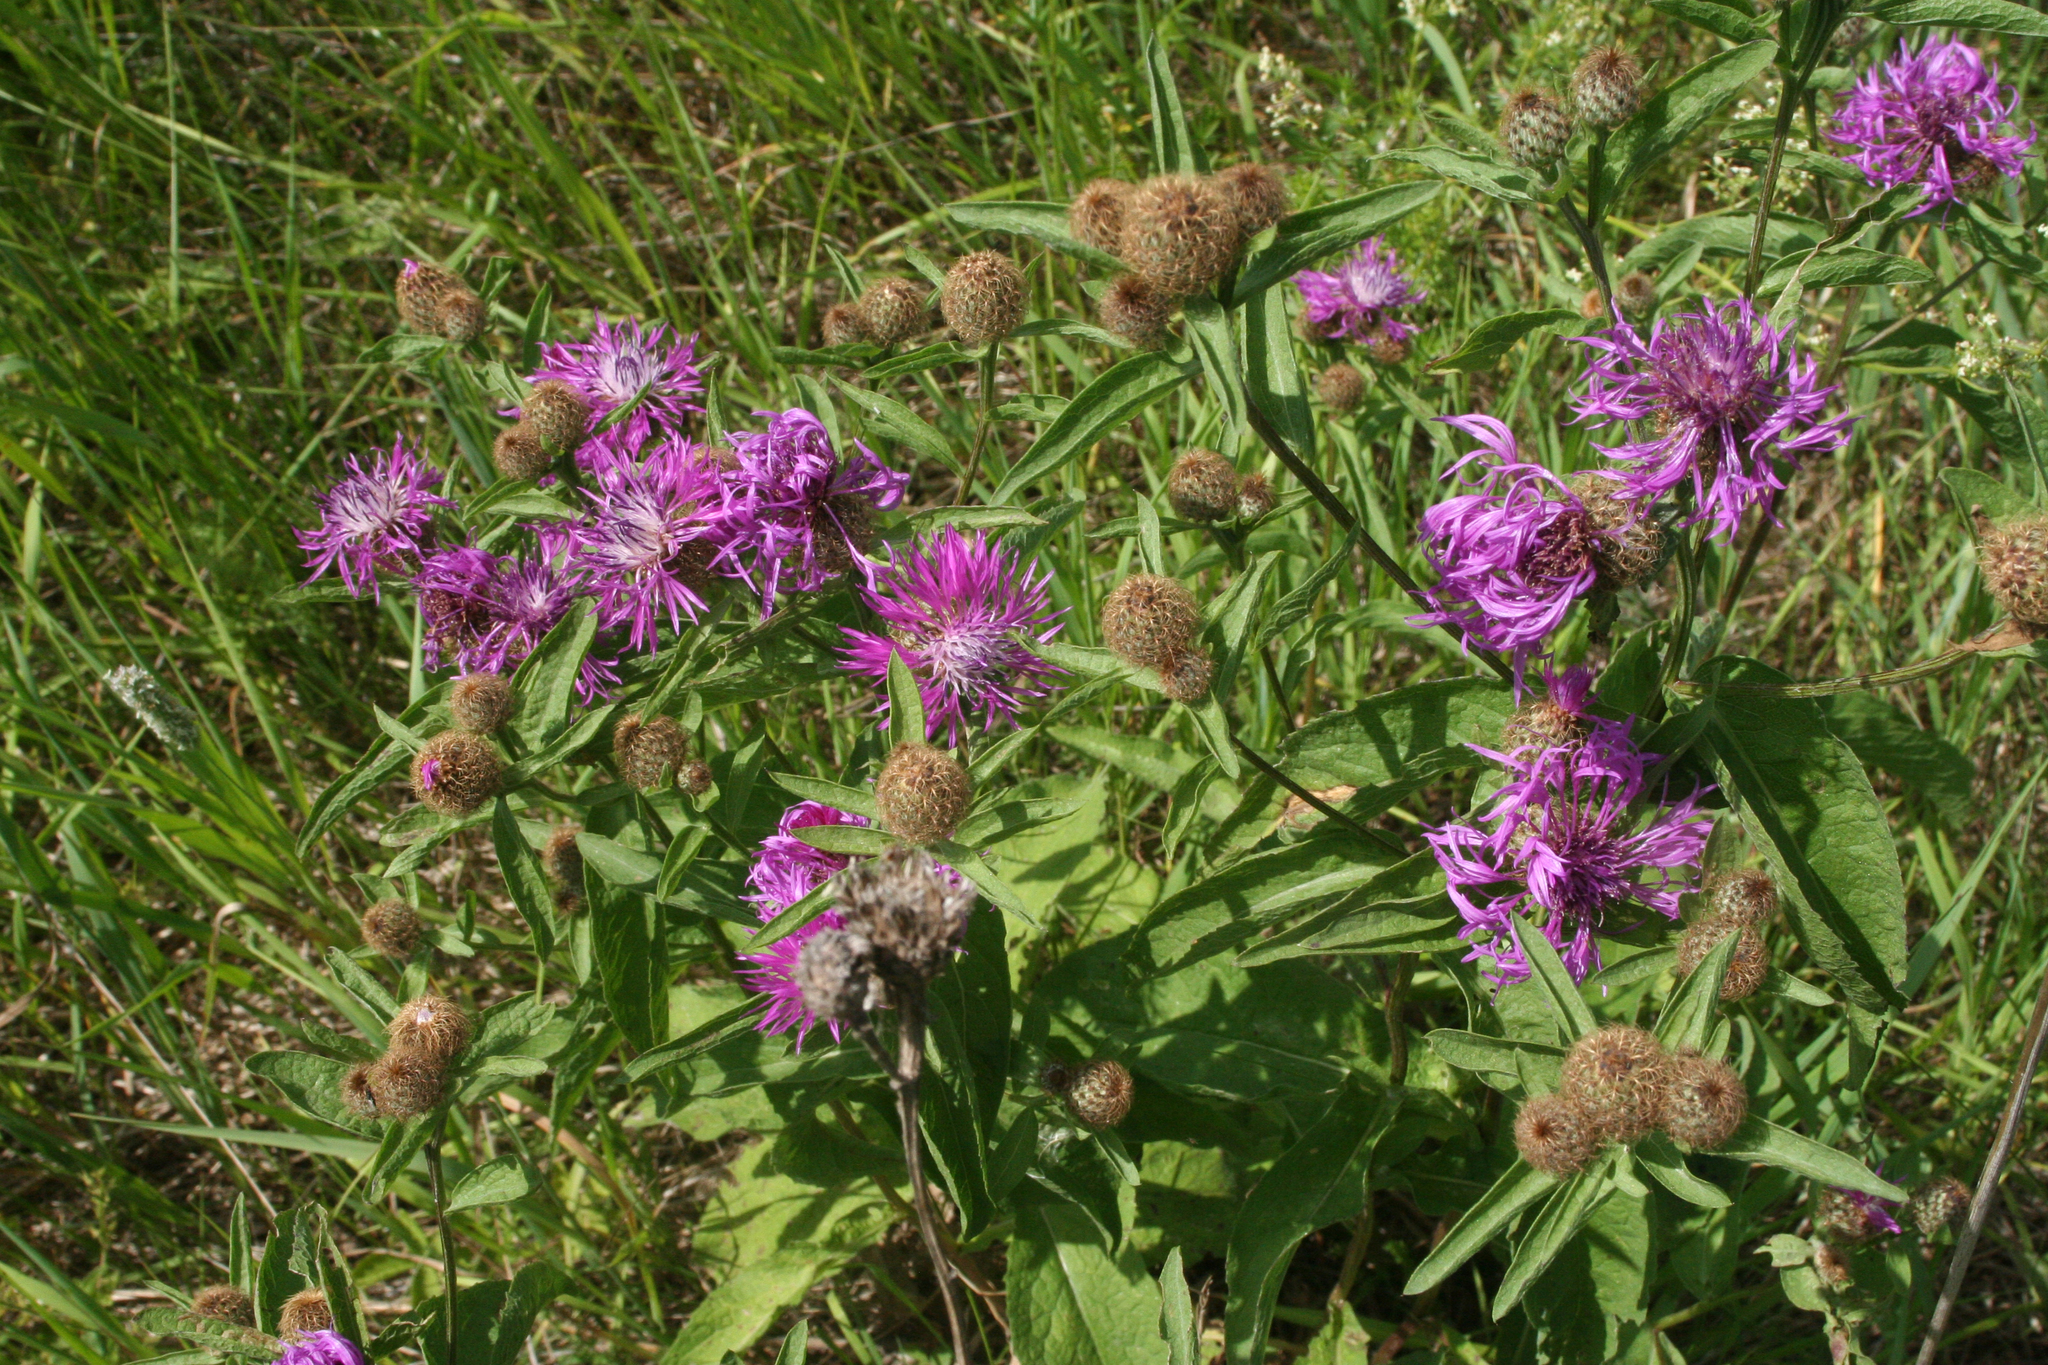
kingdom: Plantae
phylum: Tracheophyta
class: Magnoliopsida
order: Asterales
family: Asteraceae
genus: Centaurea
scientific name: Centaurea pseudophrygia
